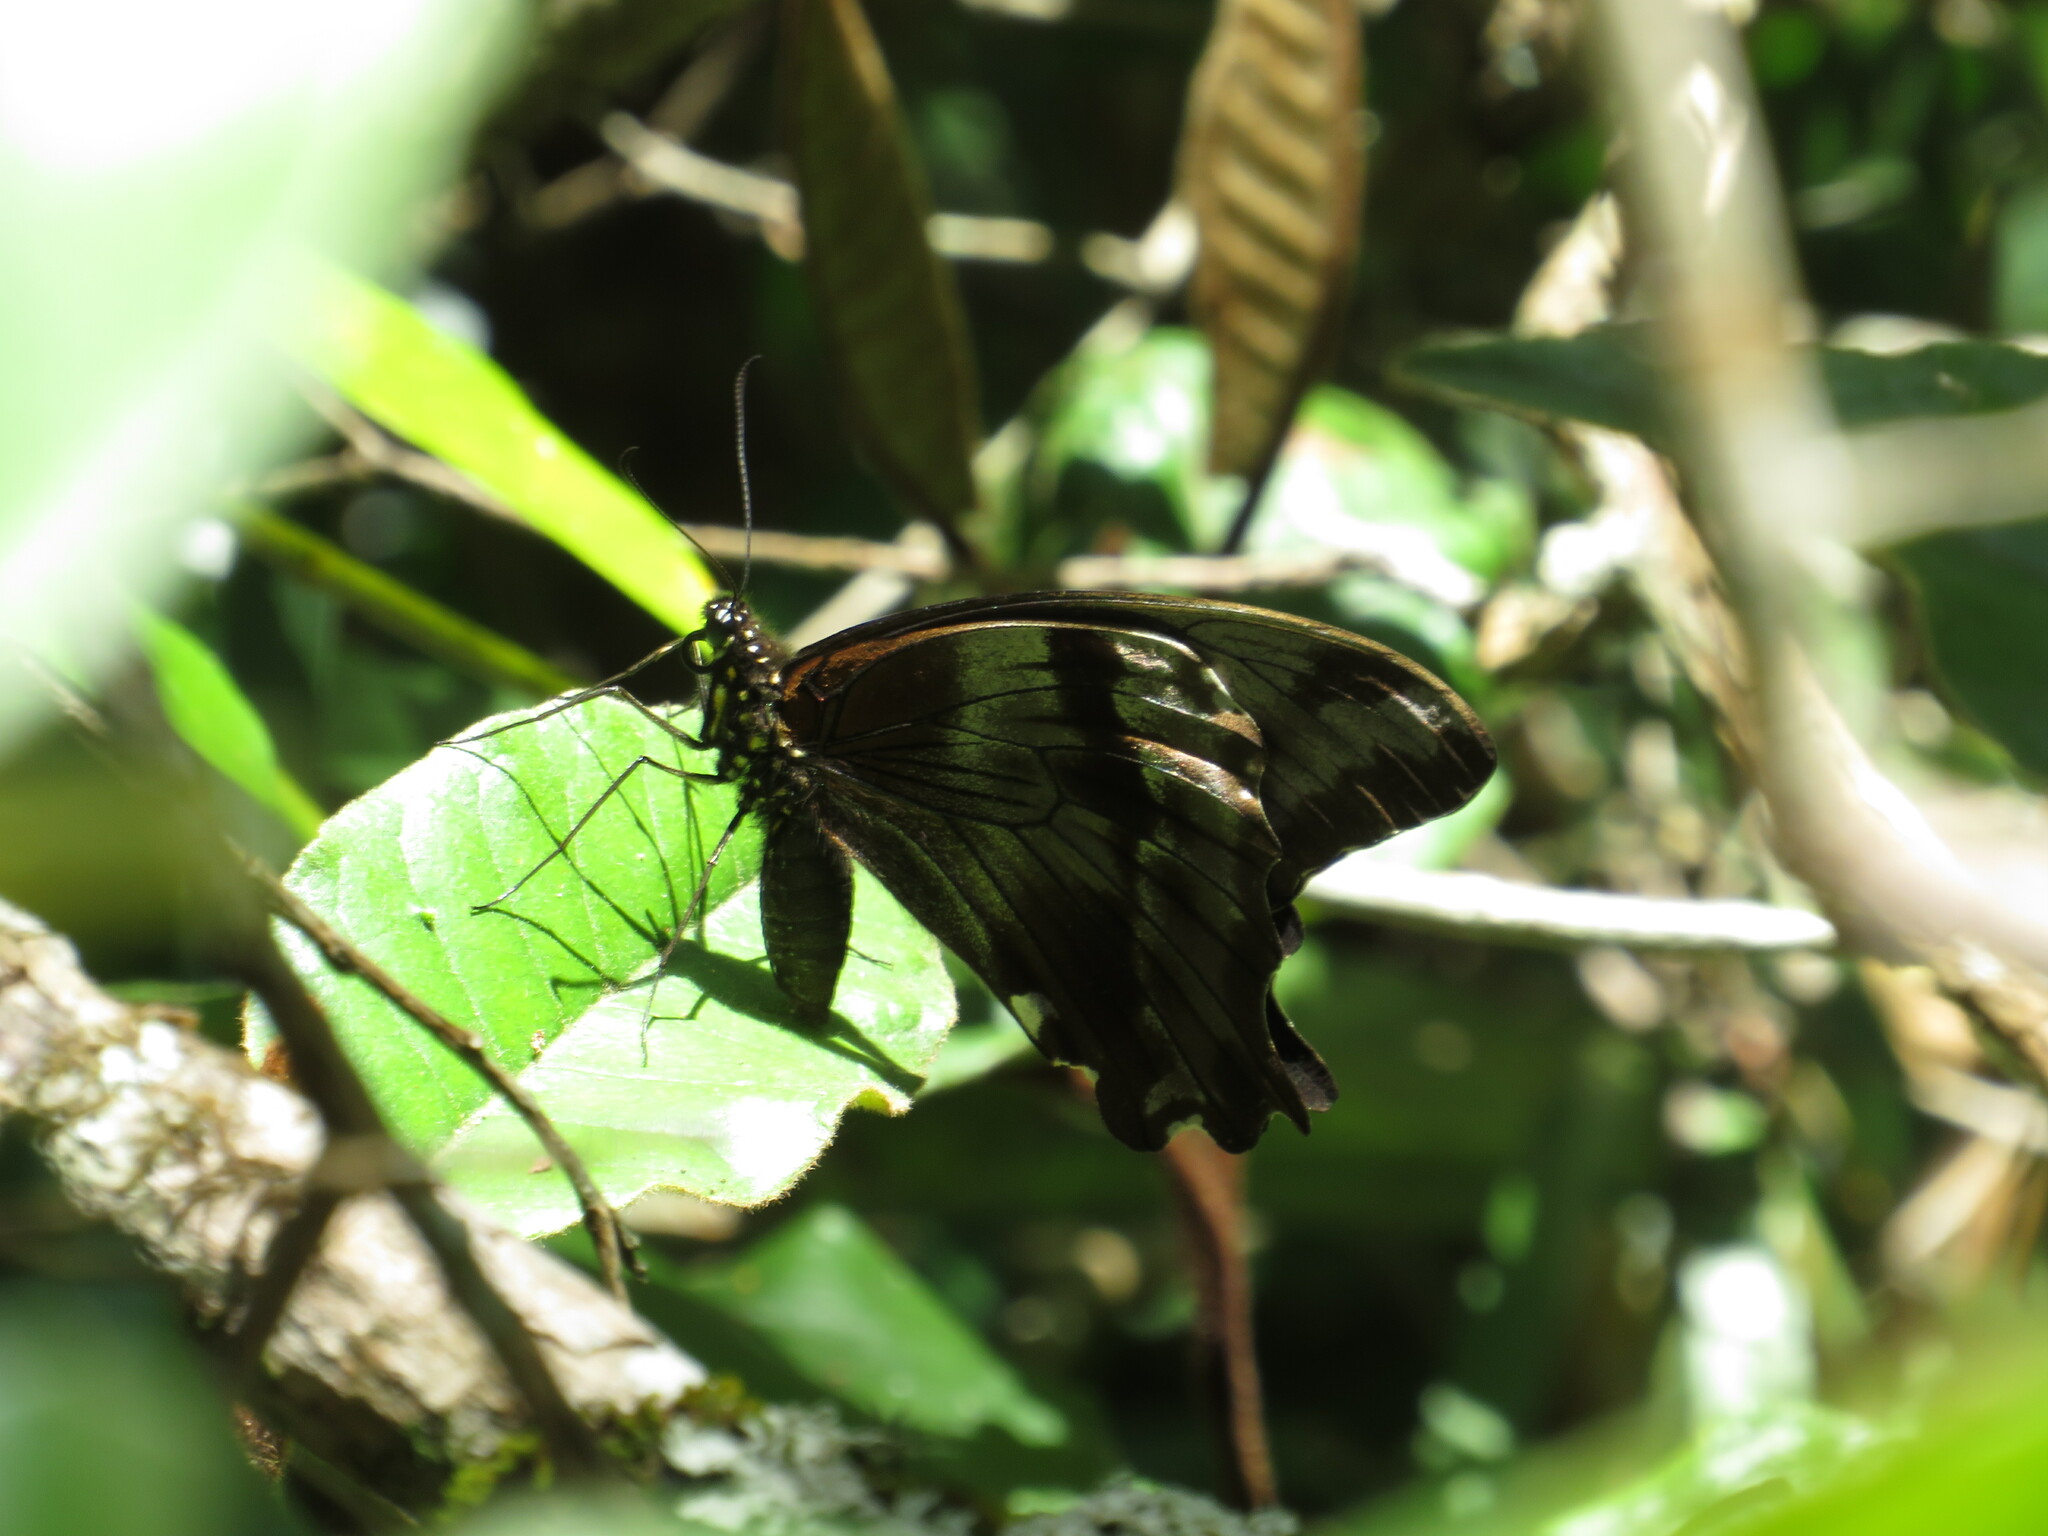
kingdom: Animalia
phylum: Arthropoda
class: Insecta
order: Lepidoptera
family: Papilionidae
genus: Papilio
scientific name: Papilio nireus
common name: Greenbanded swallowtail
